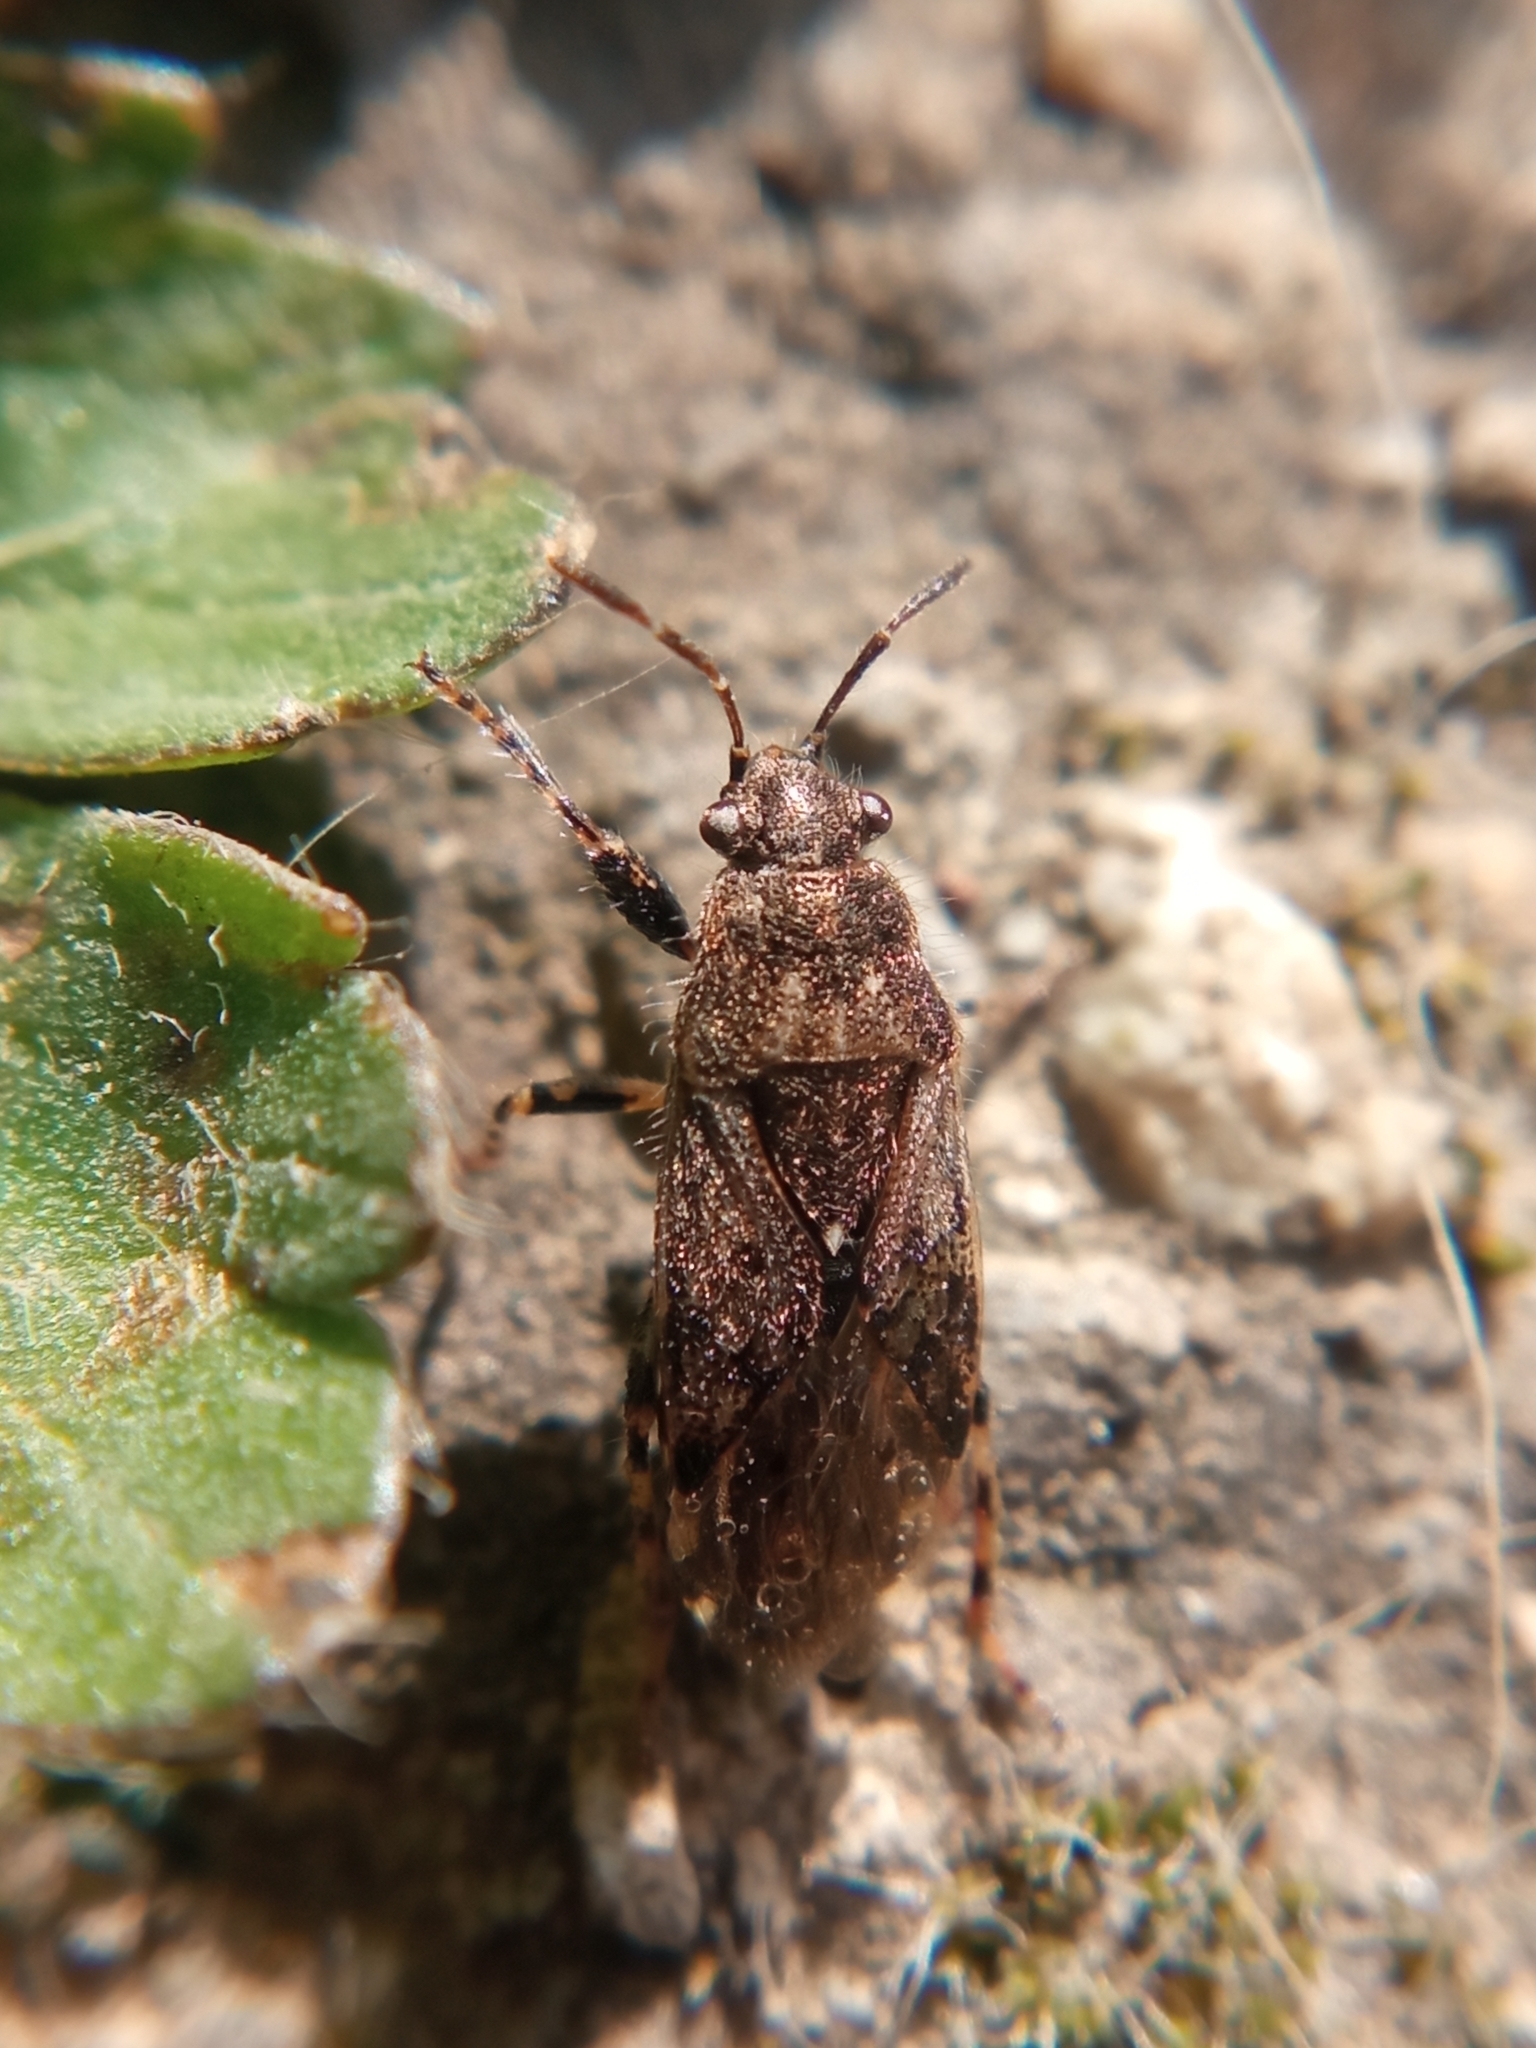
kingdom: Animalia
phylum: Arthropoda
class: Insecta
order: Hemiptera
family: Heterogastridae
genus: Heterogaster
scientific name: Heterogaster urticae
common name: Seed bug
